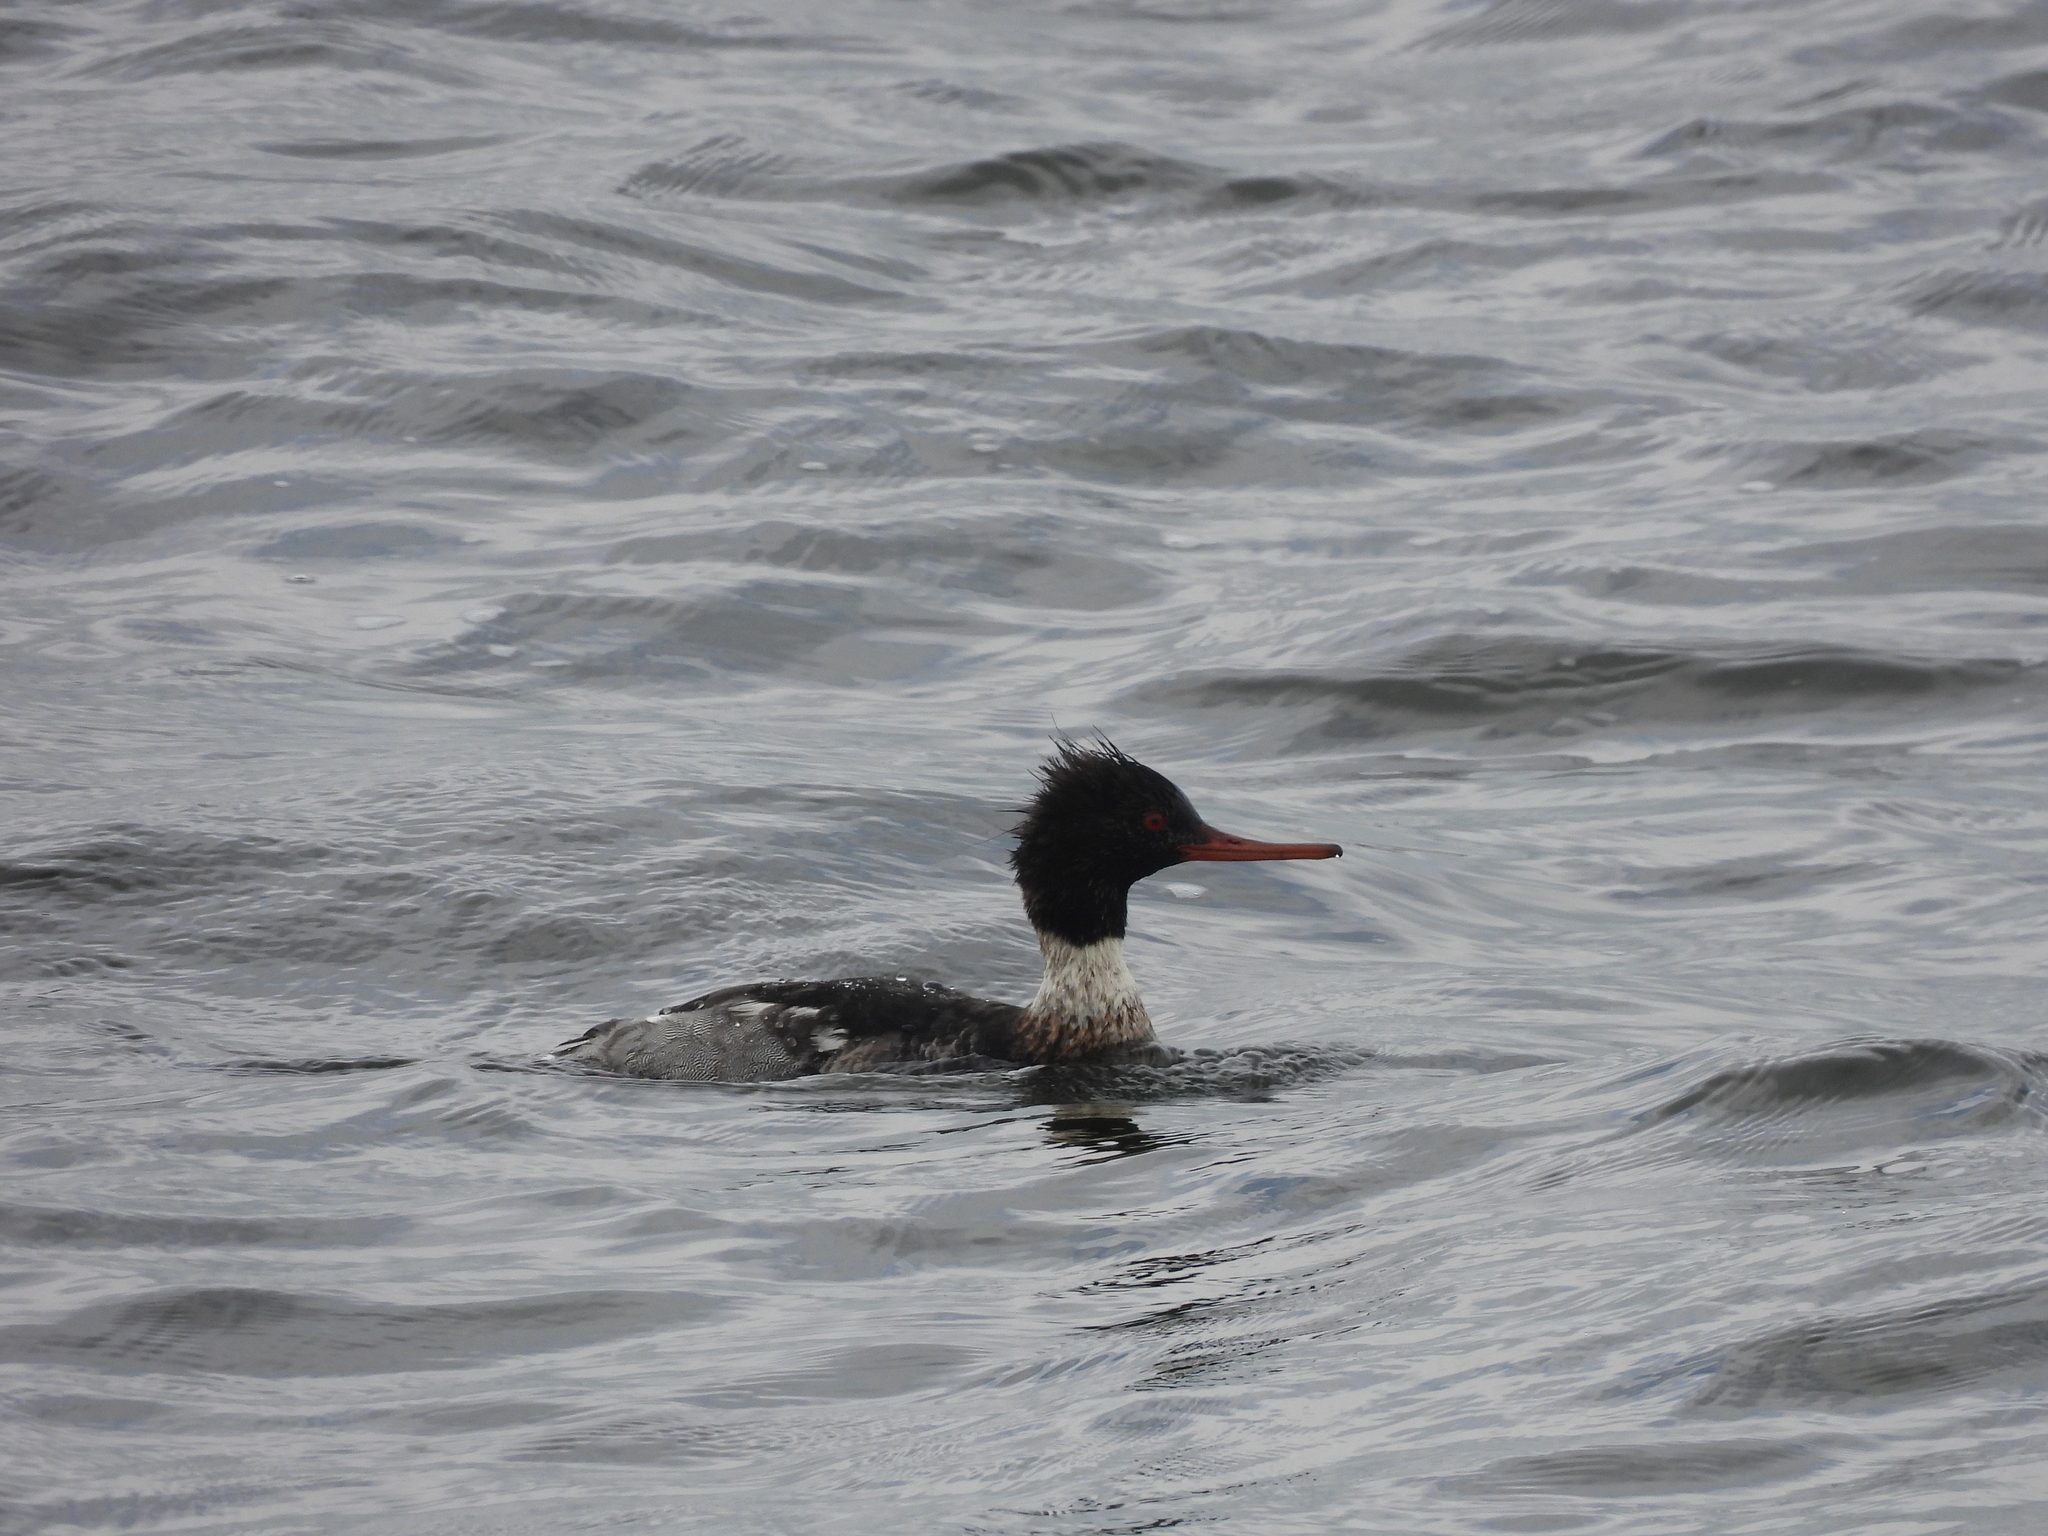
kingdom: Animalia
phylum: Chordata
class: Aves
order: Anseriformes
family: Anatidae
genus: Mergus
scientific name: Mergus serrator
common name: Red-breasted merganser
